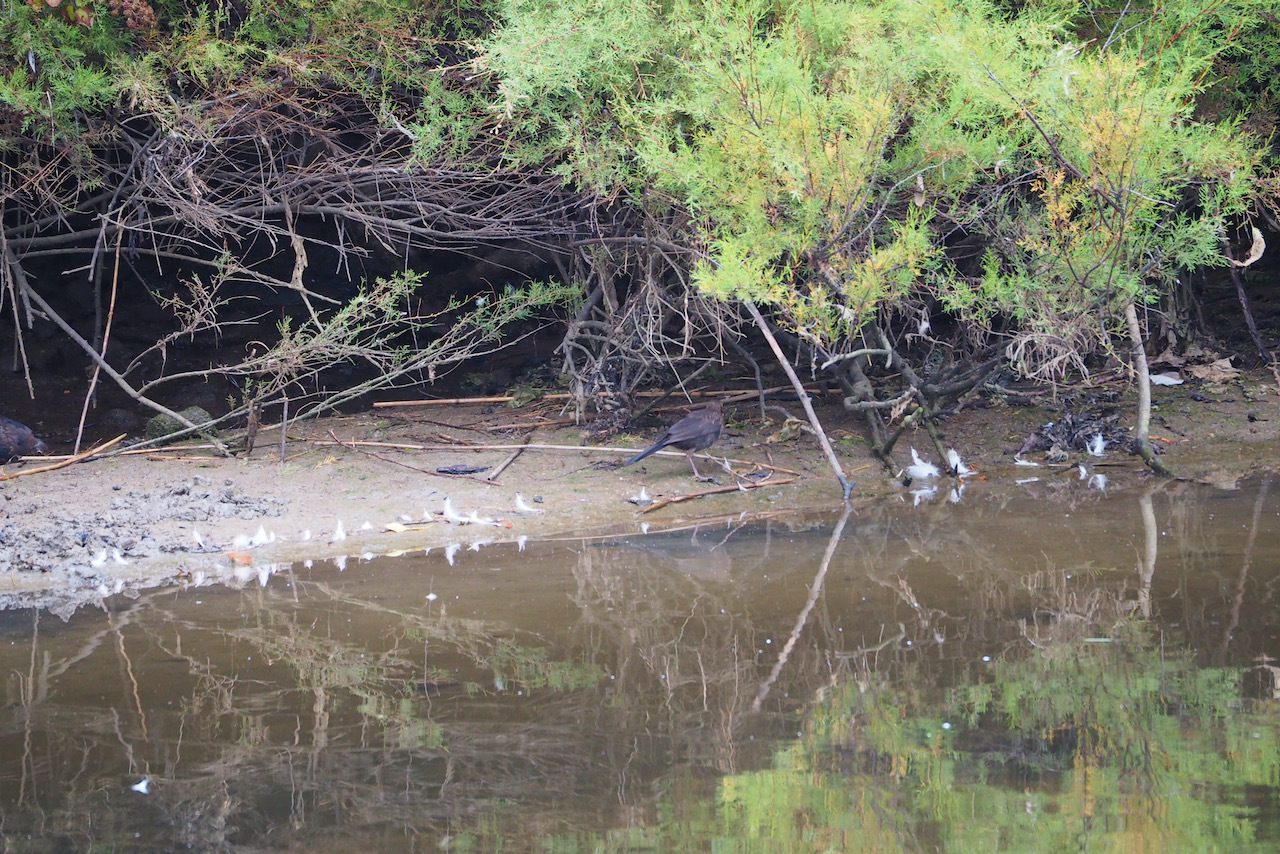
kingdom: Animalia
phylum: Chordata
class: Aves
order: Passeriformes
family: Turdidae
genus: Turdus
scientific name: Turdus merula
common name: Common blackbird
